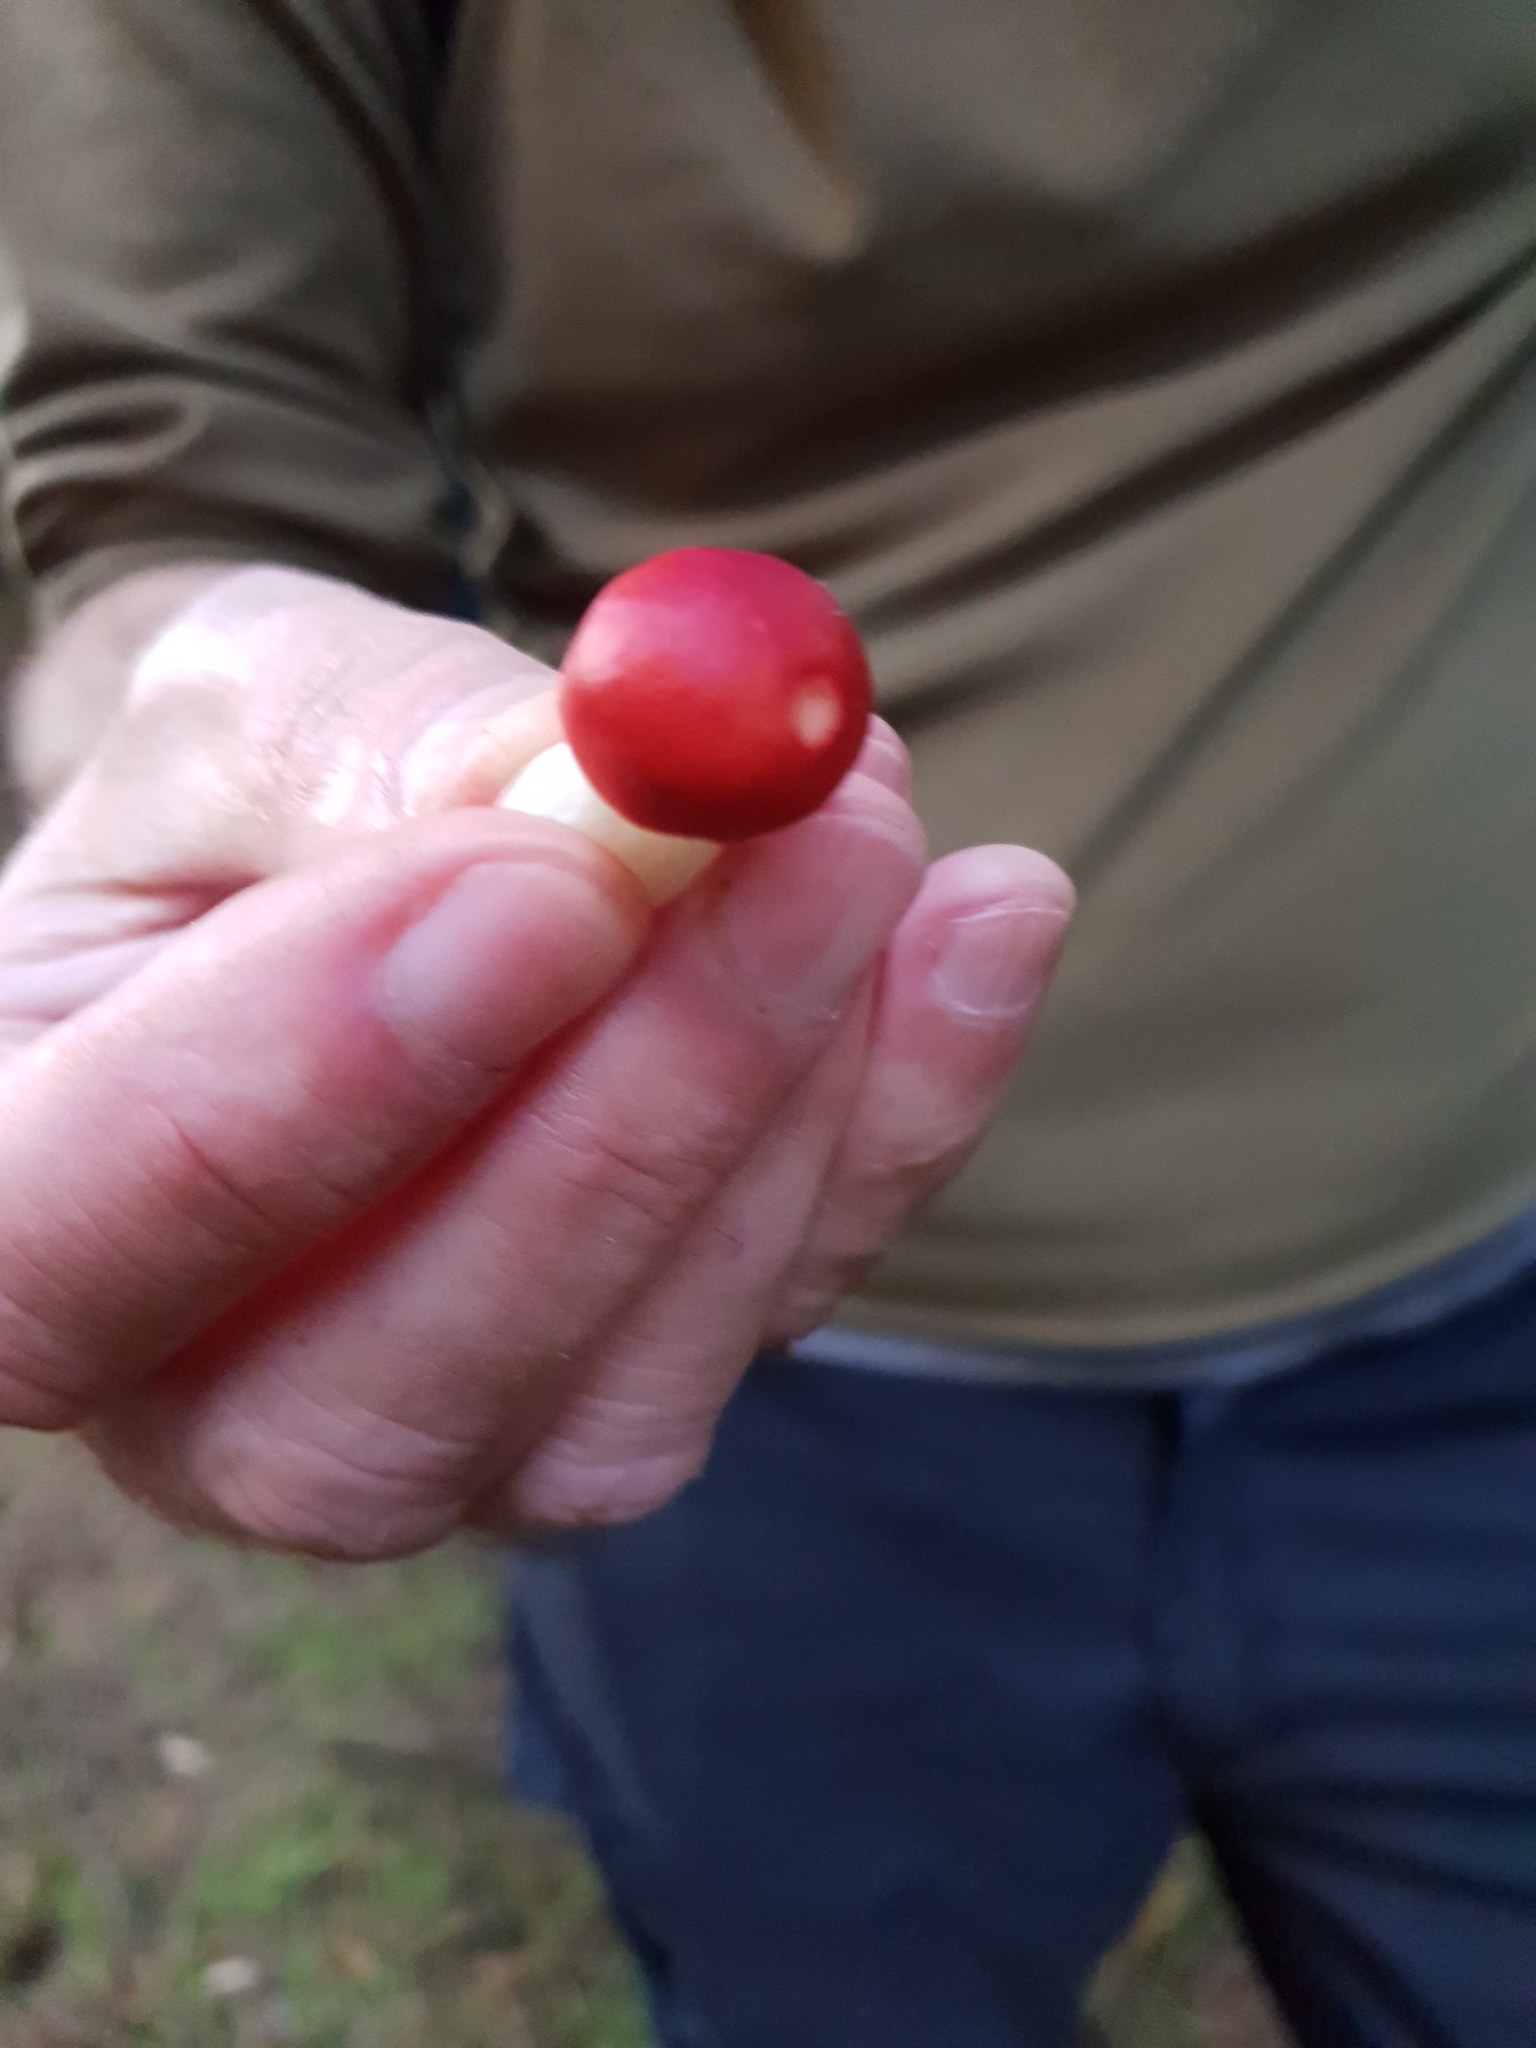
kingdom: Fungi
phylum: Basidiomycota
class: Agaricomycetes
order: Russulales
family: Russulaceae
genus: Russula
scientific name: Russula
